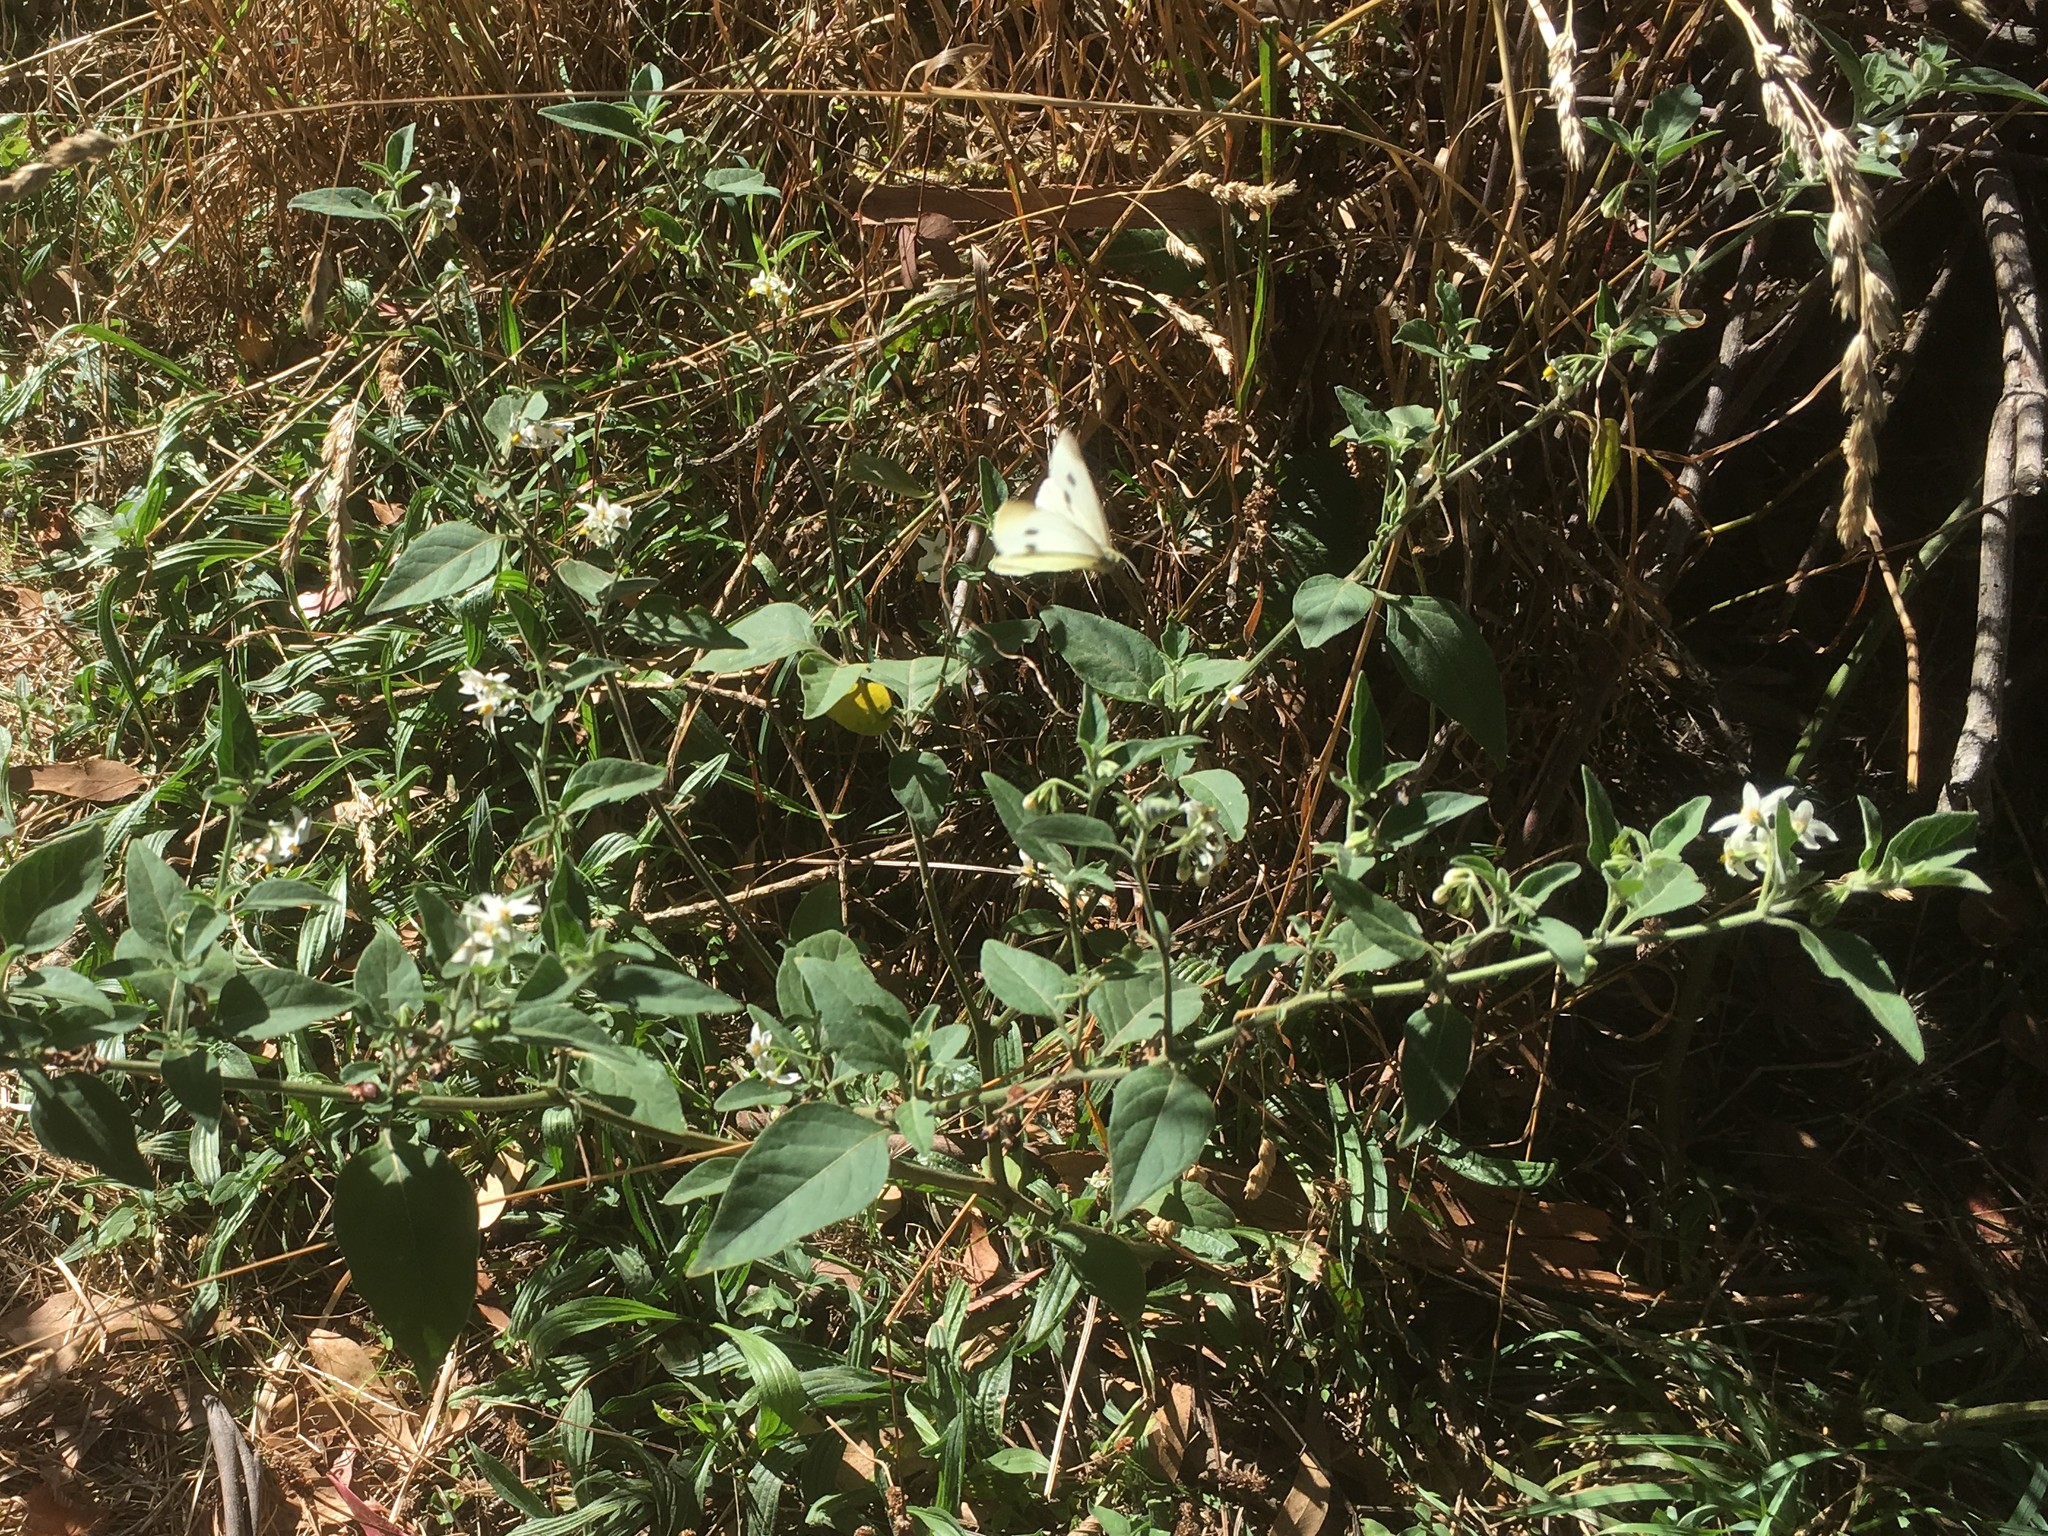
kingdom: Plantae
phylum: Tracheophyta
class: Magnoliopsida
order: Solanales
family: Solanaceae
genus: Solanum
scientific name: Solanum chenopodioides
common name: Tall nightshade
